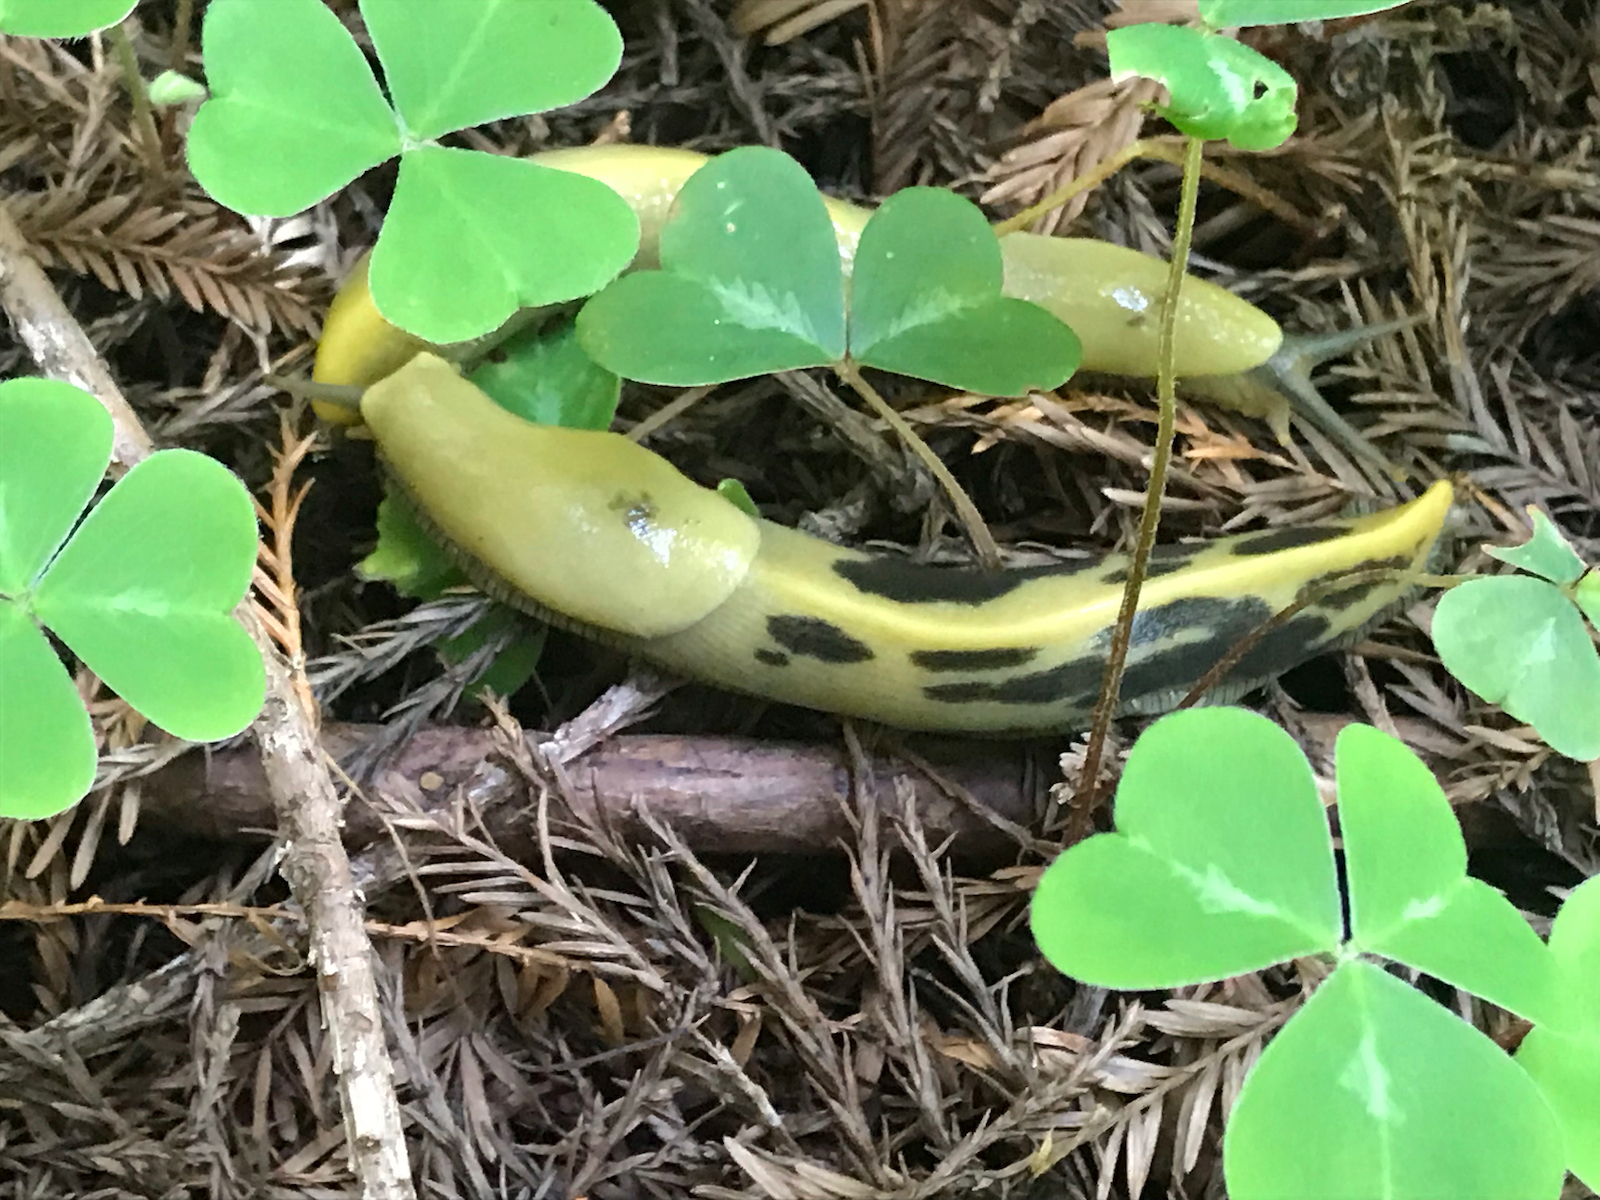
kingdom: Animalia
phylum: Mollusca
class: Gastropoda
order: Stylommatophora
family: Ariolimacidae
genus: Ariolimax
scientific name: Ariolimax columbianus
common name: Pacific banana slug
